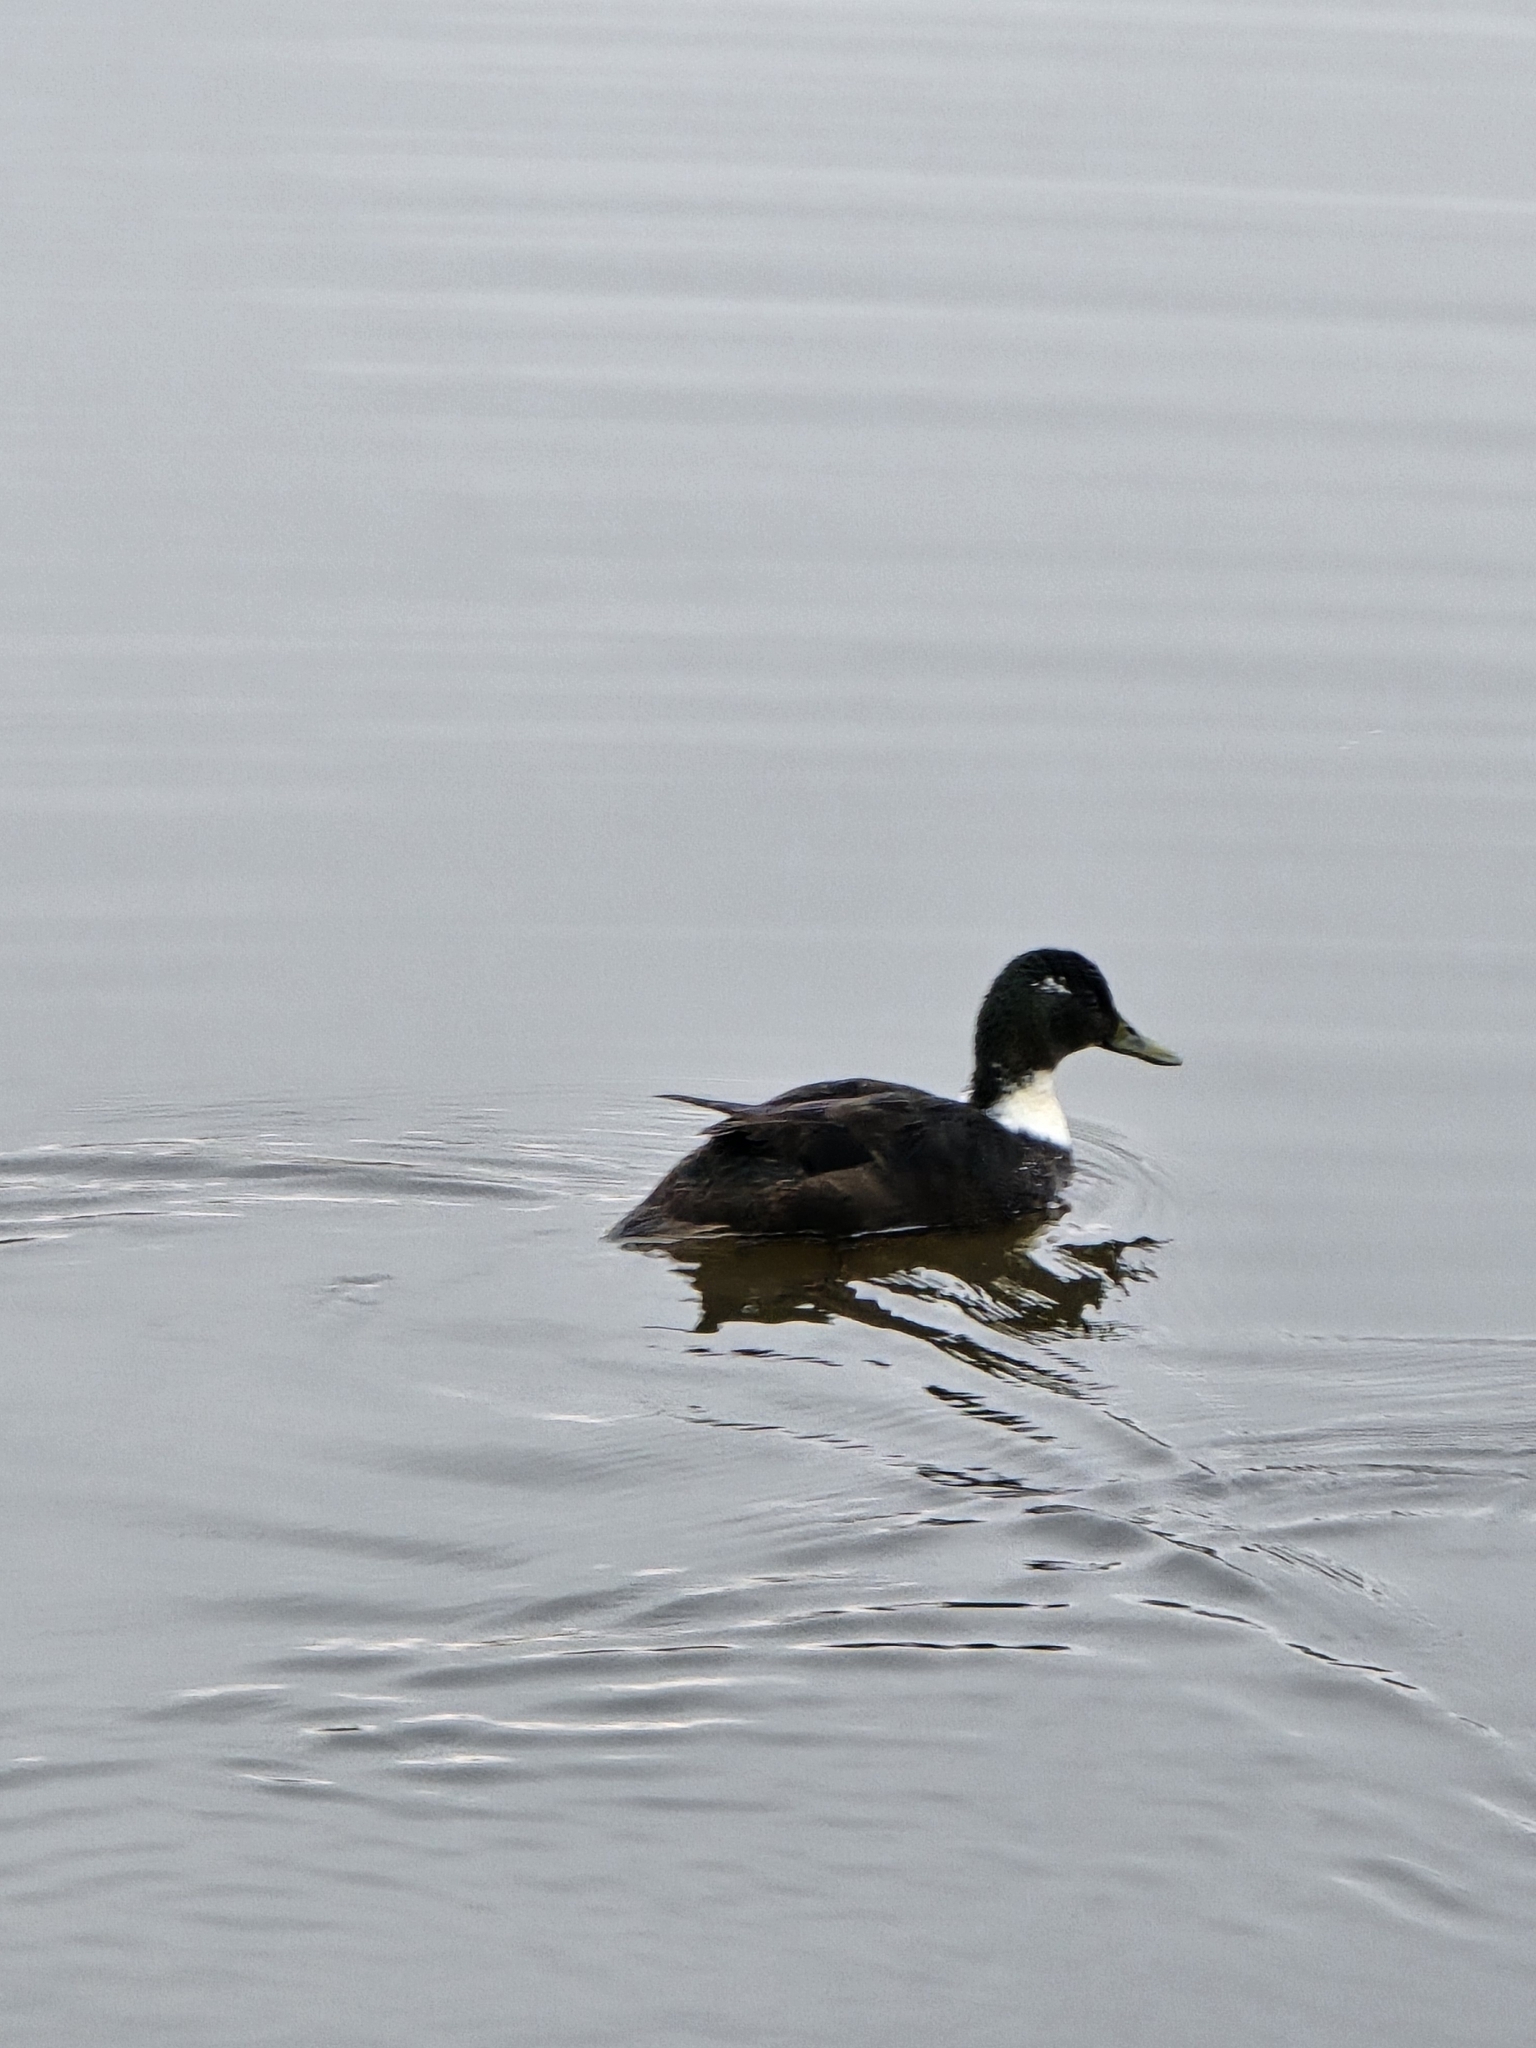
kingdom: Animalia
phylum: Chordata
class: Aves
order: Anseriformes
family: Anatidae
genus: Anas
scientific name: Anas platyrhynchos
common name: Mallard
